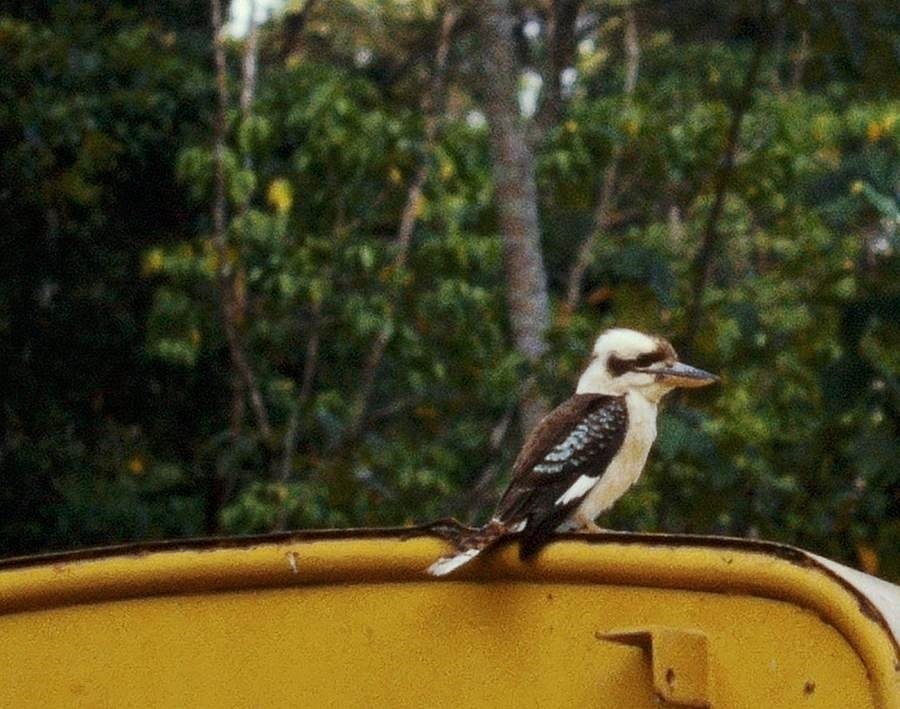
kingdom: Animalia
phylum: Chordata
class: Aves
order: Coraciiformes
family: Alcedinidae
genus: Dacelo
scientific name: Dacelo novaeguineae
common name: Laughing kookaburra
